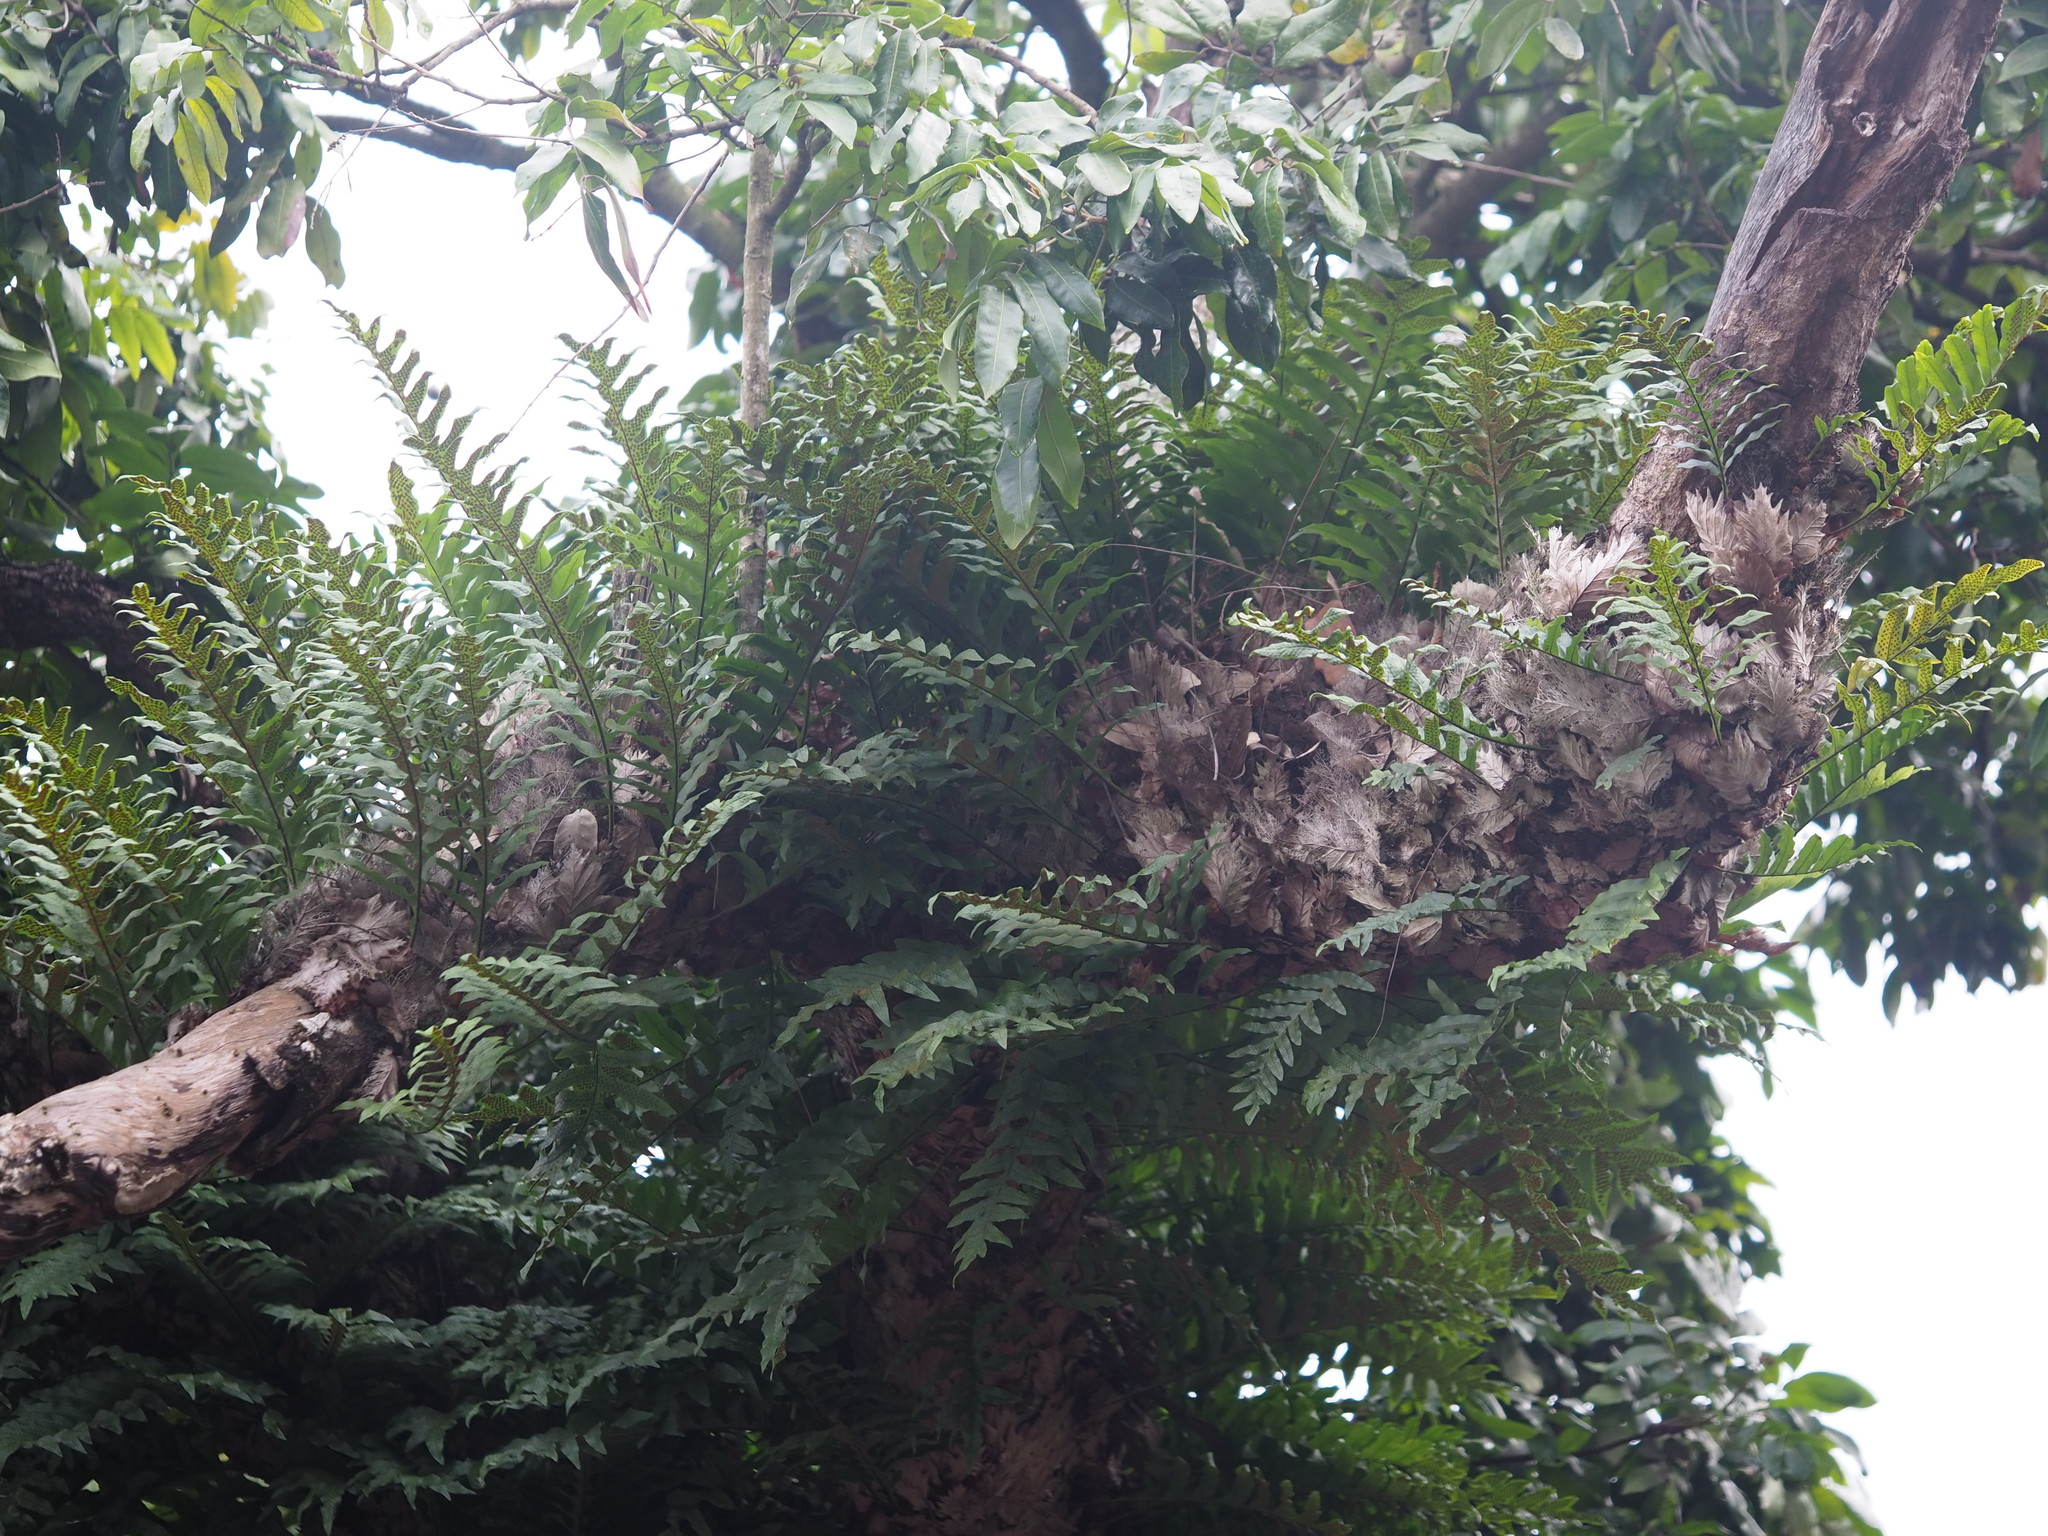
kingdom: Plantae
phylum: Tracheophyta
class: Polypodiopsida
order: Polypodiales
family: Polypodiaceae
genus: Drynaria
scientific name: Drynaria roosii
